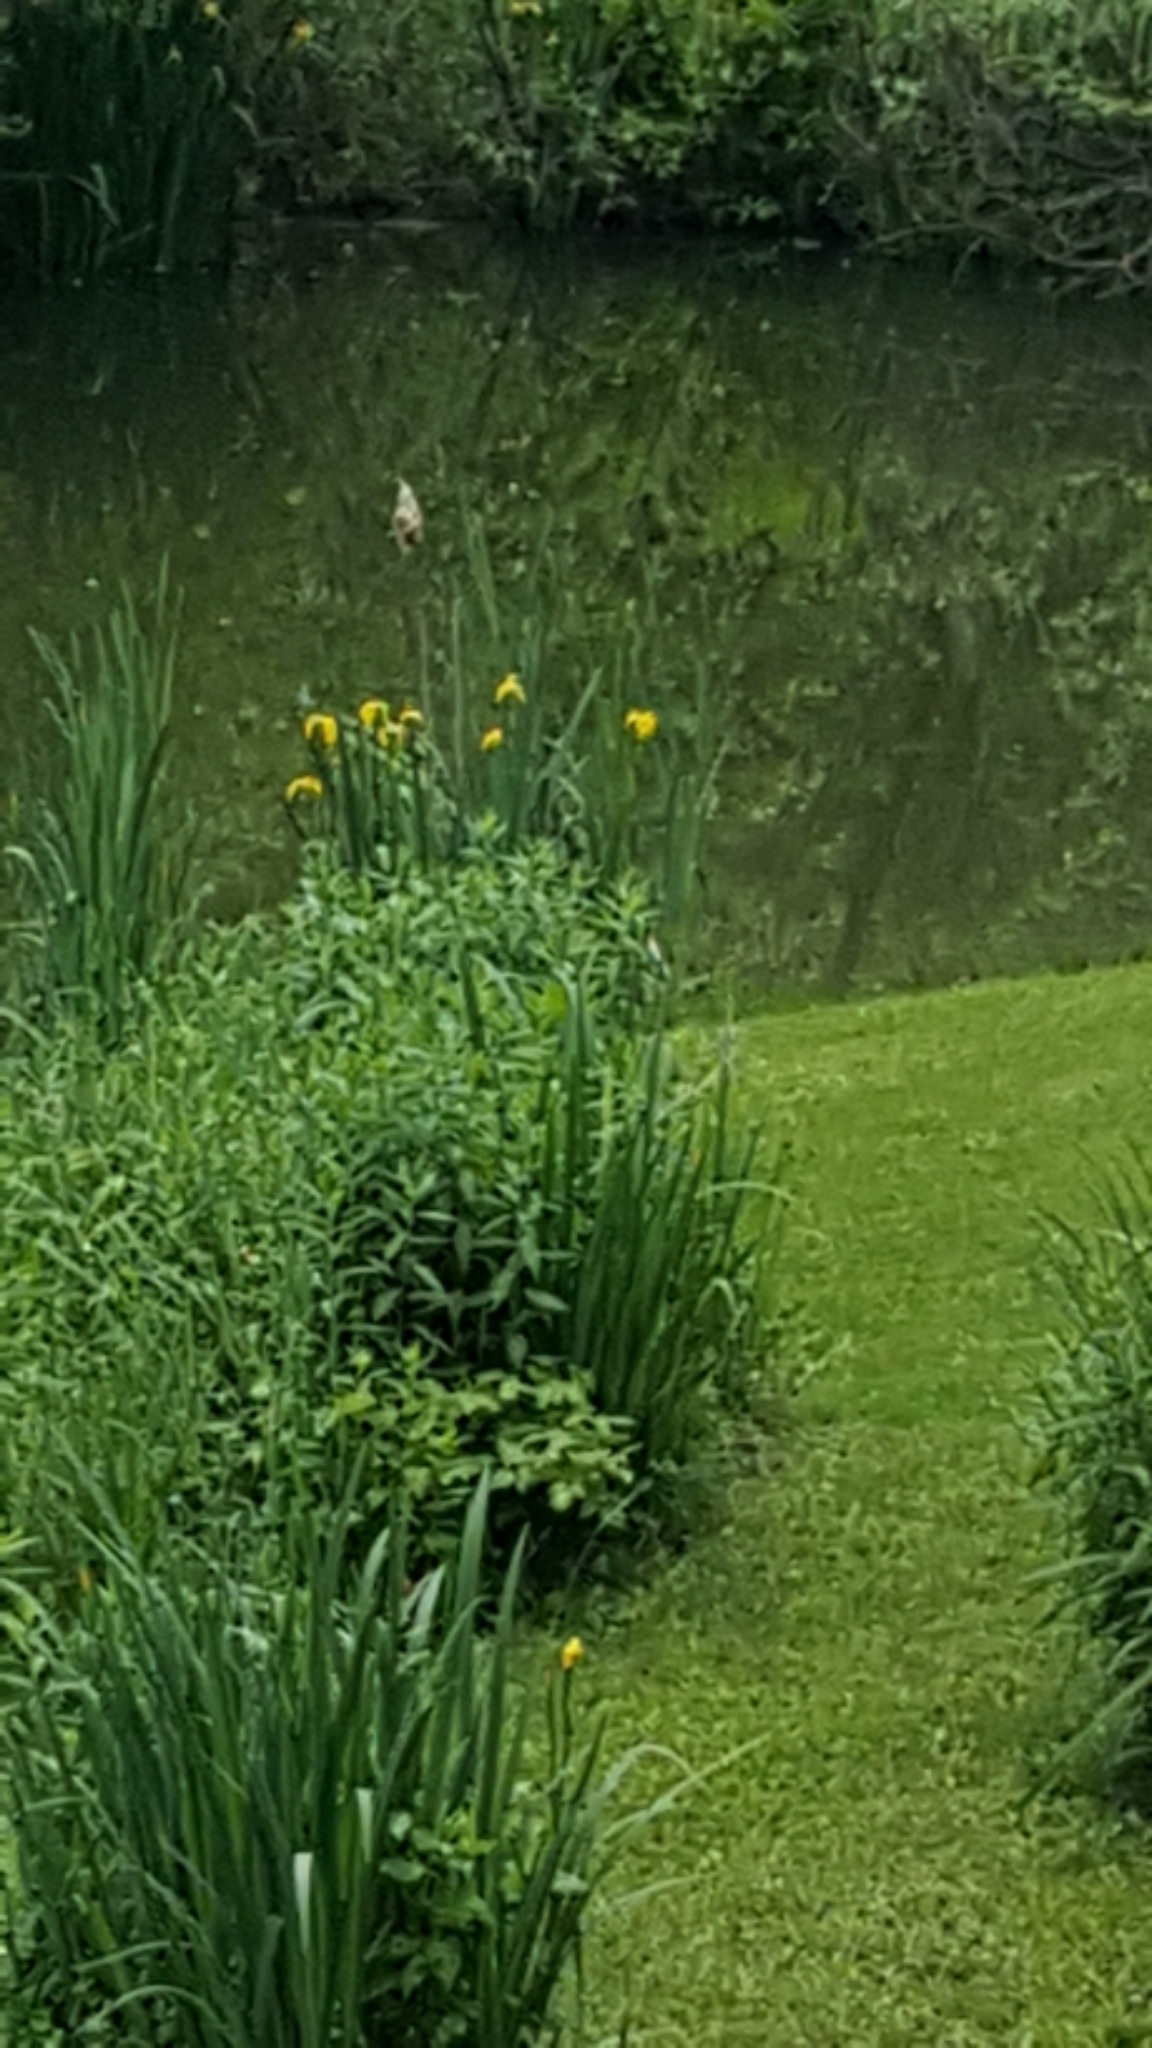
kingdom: Plantae
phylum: Tracheophyta
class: Liliopsida
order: Asparagales
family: Iridaceae
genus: Iris
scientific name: Iris pseudacorus
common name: Yellow flag
